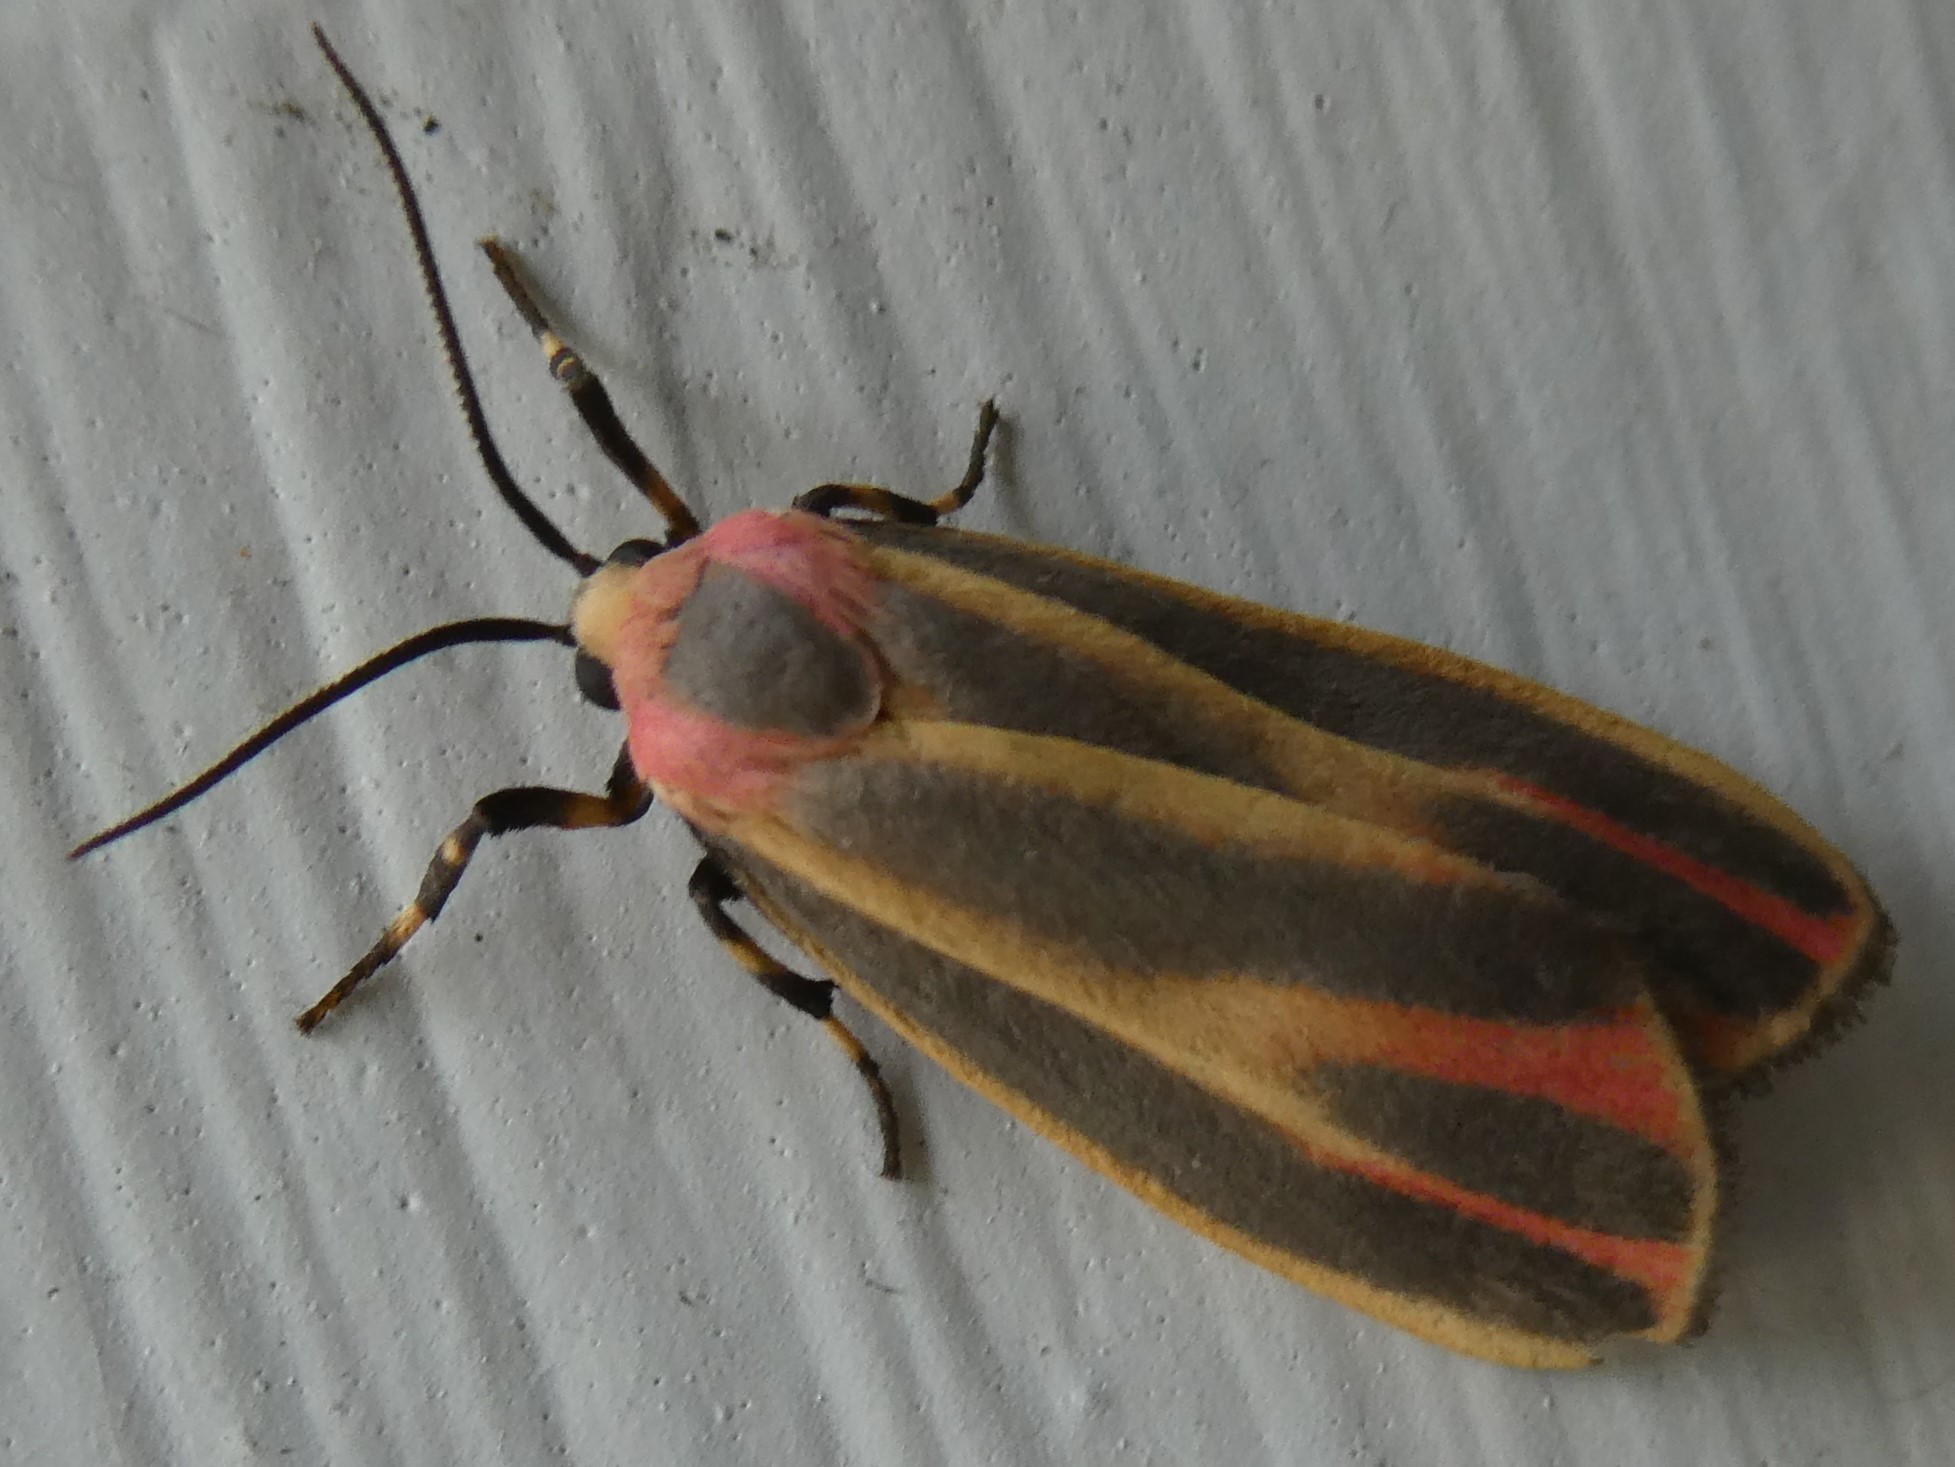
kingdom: Animalia
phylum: Arthropoda
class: Insecta
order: Lepidoptera
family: Erebidae
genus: Hypoprepia
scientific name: Hypoprepia fucosa
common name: Painted lichen moth
